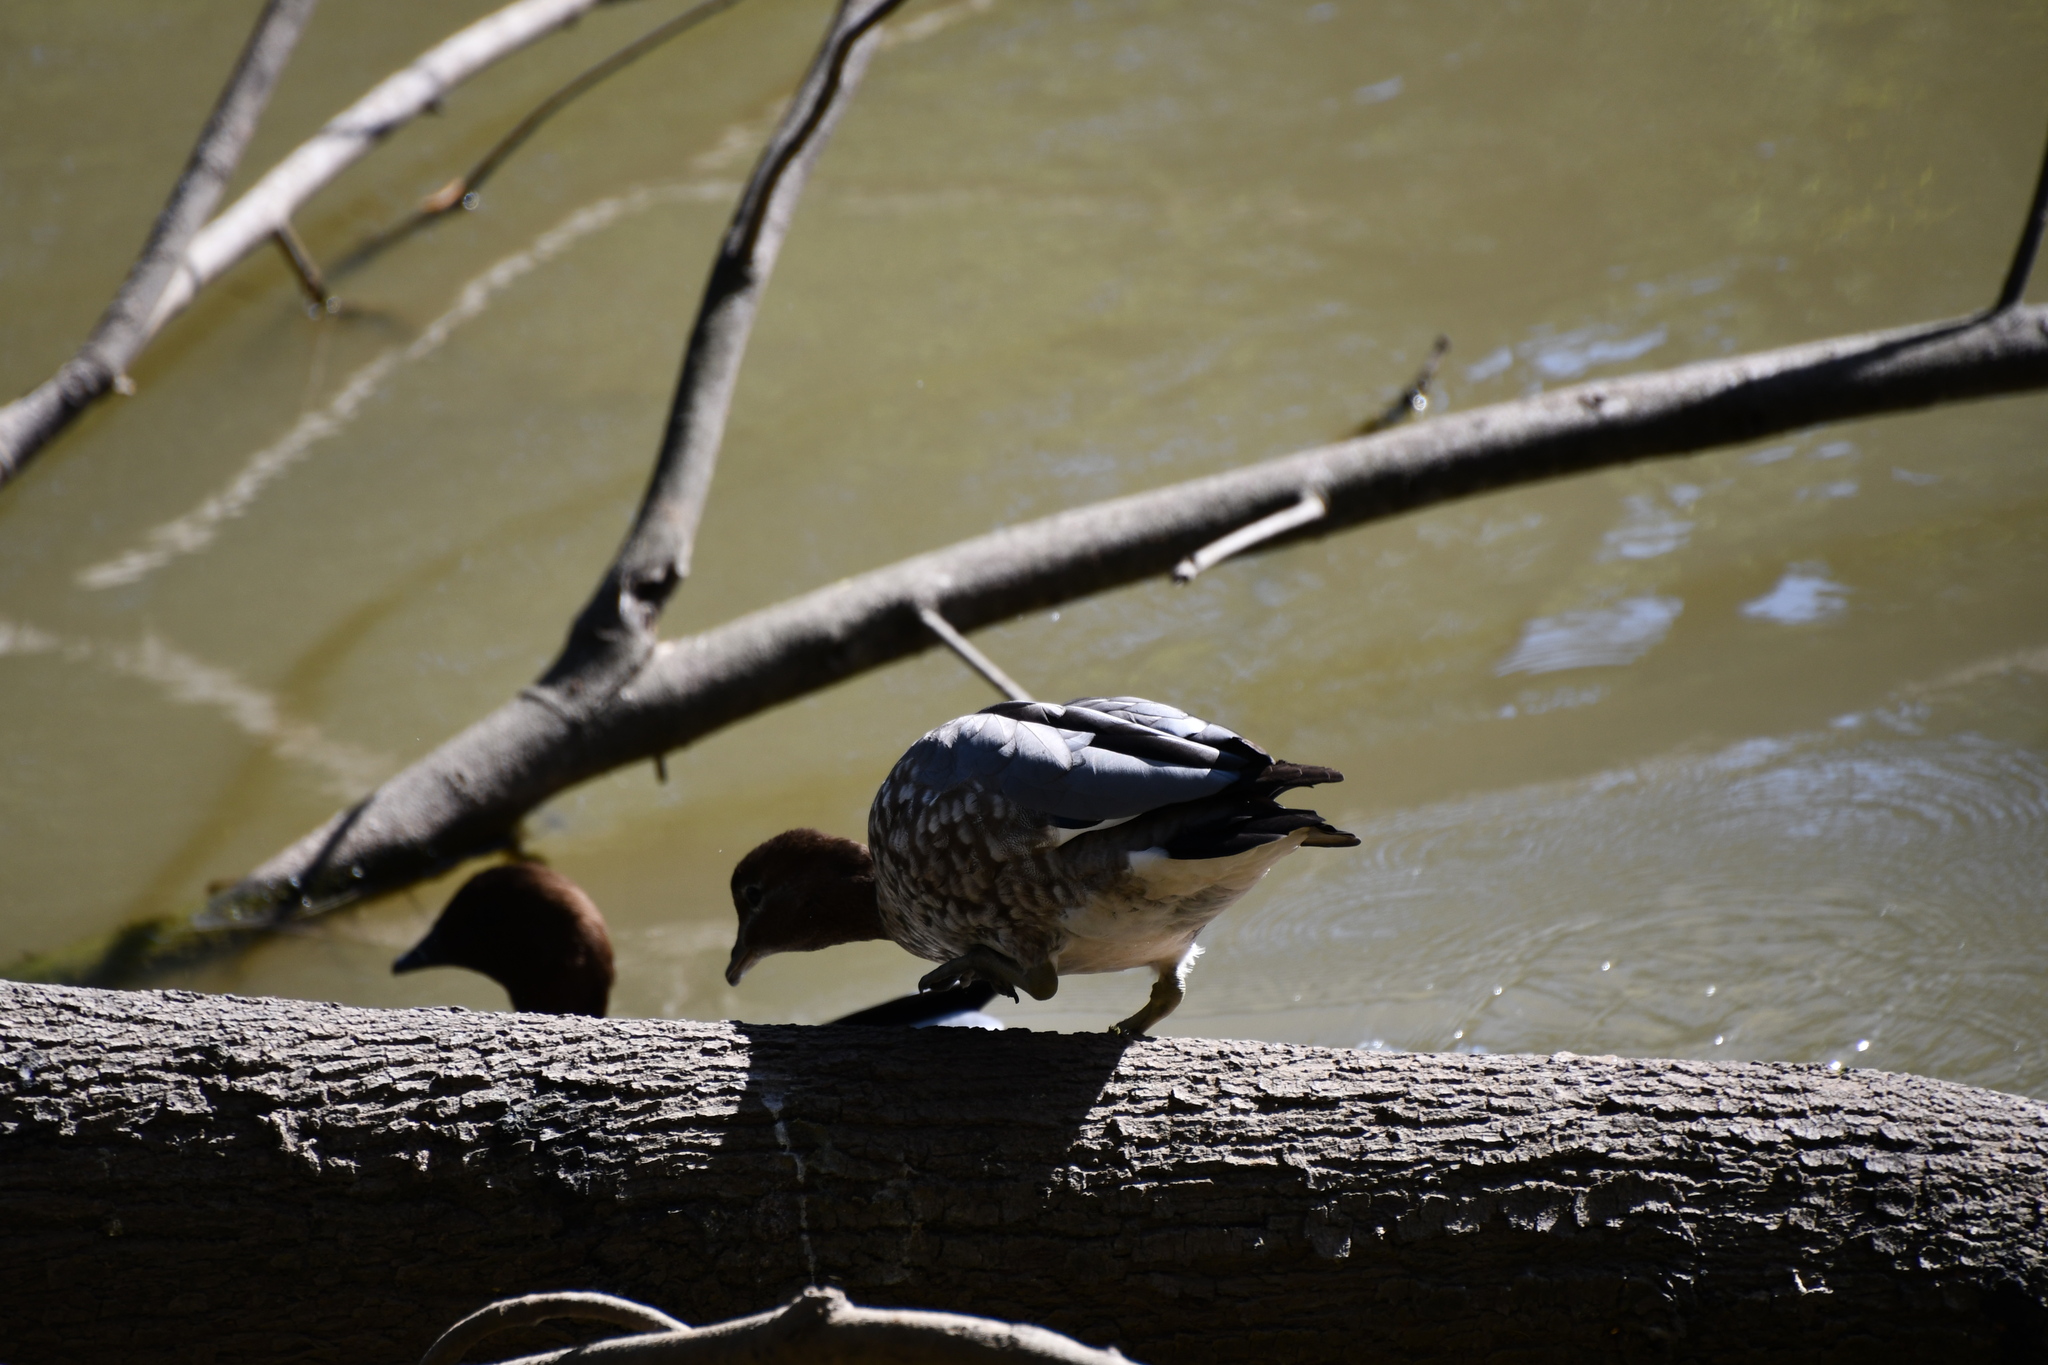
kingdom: Animalia
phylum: Chordata
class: Aves
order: Anseriformes
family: Anatidae
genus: Chenonetta
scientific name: Chenonetta jubata
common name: Maned duck
